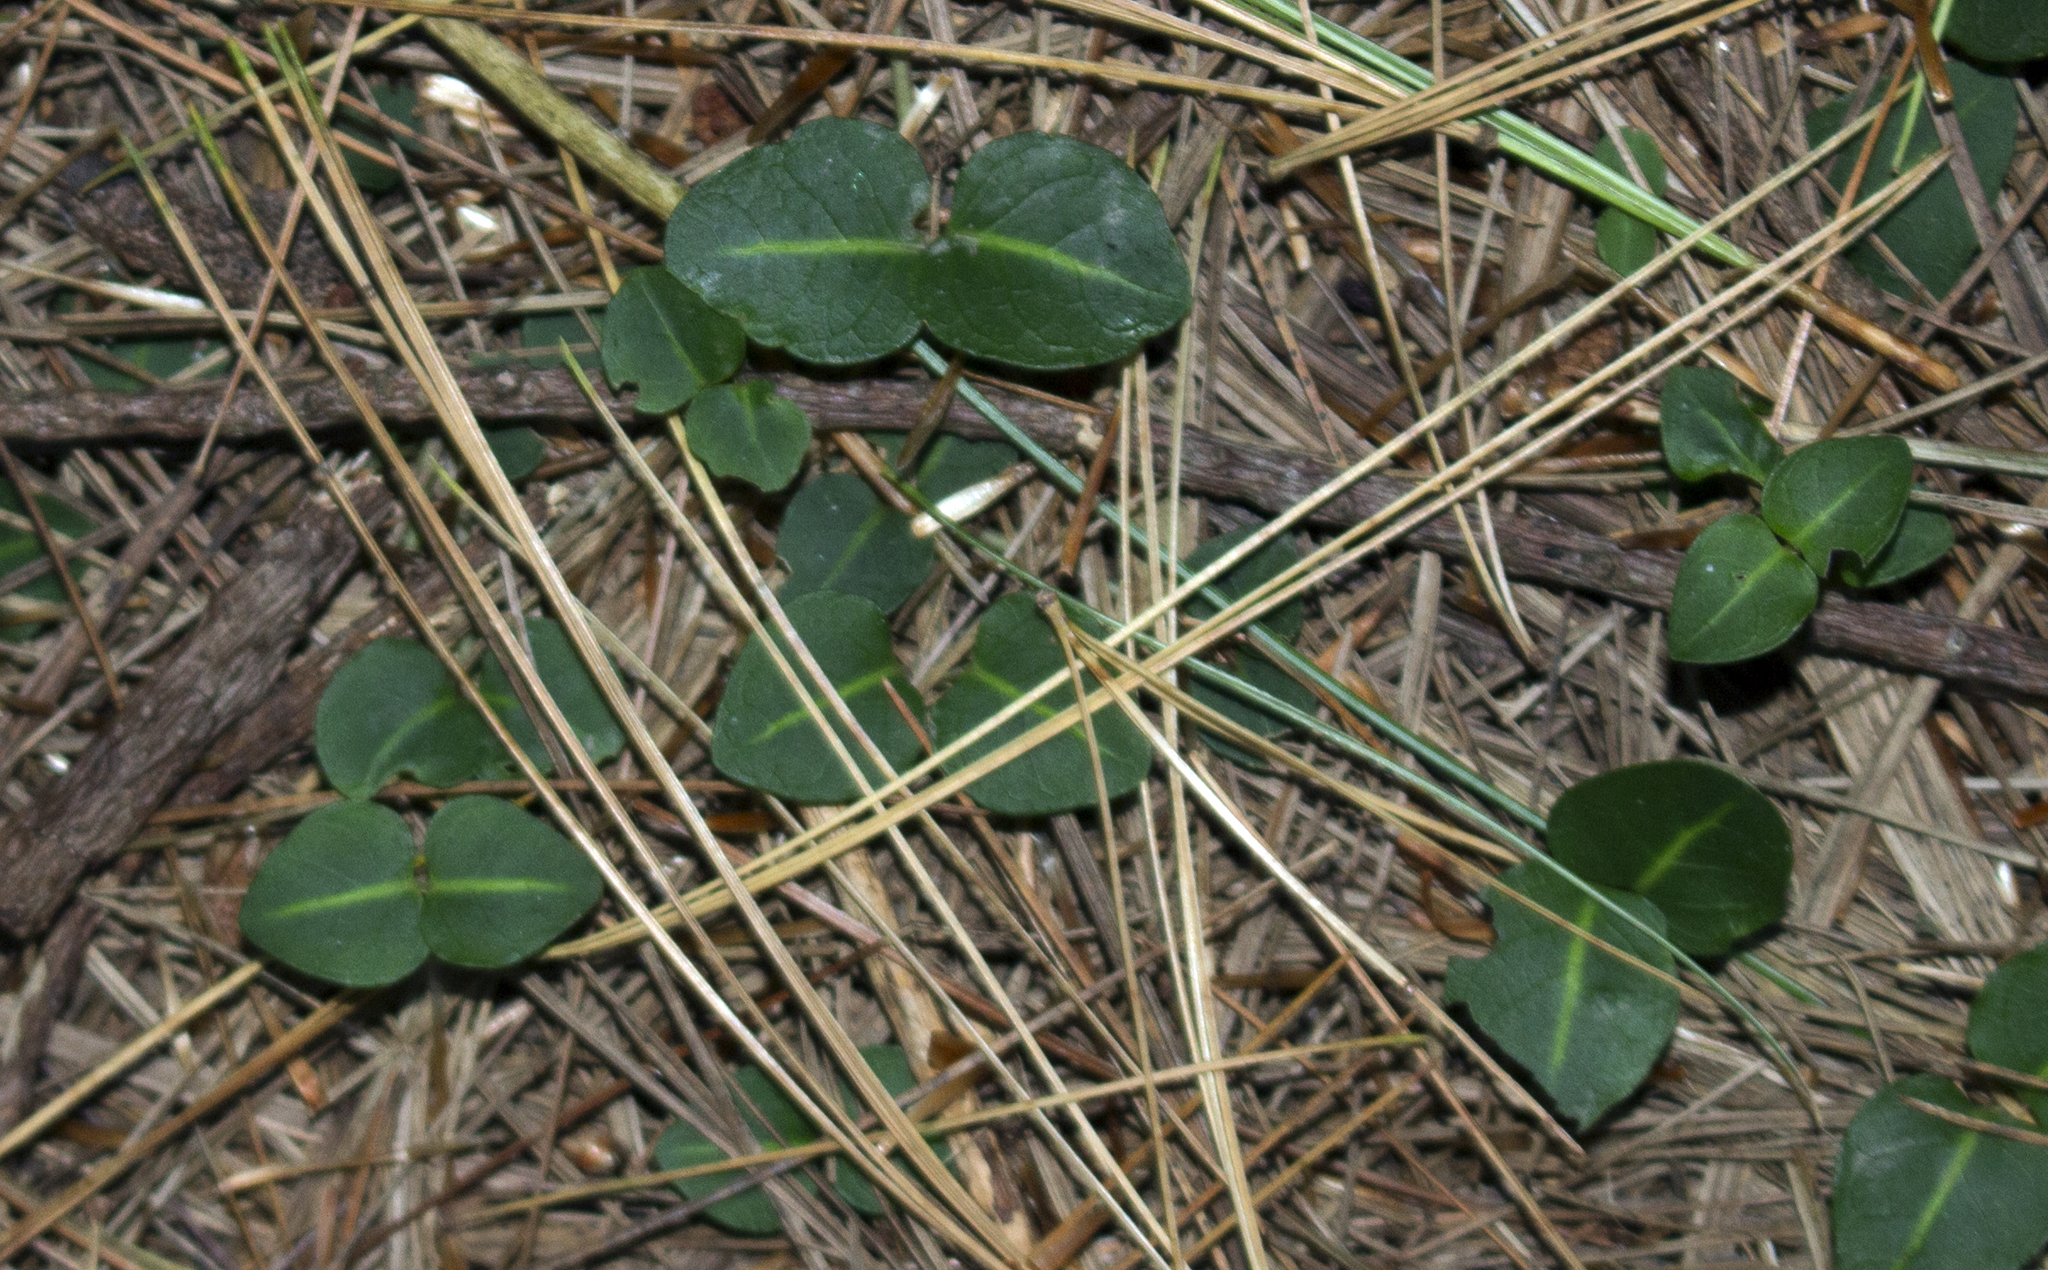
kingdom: Plantae
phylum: Tracheophyta
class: Magnoliopsida
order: Gentianales
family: Rubiaceae
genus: Mitchella
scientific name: Mitchella repens
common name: Partridge-berry
